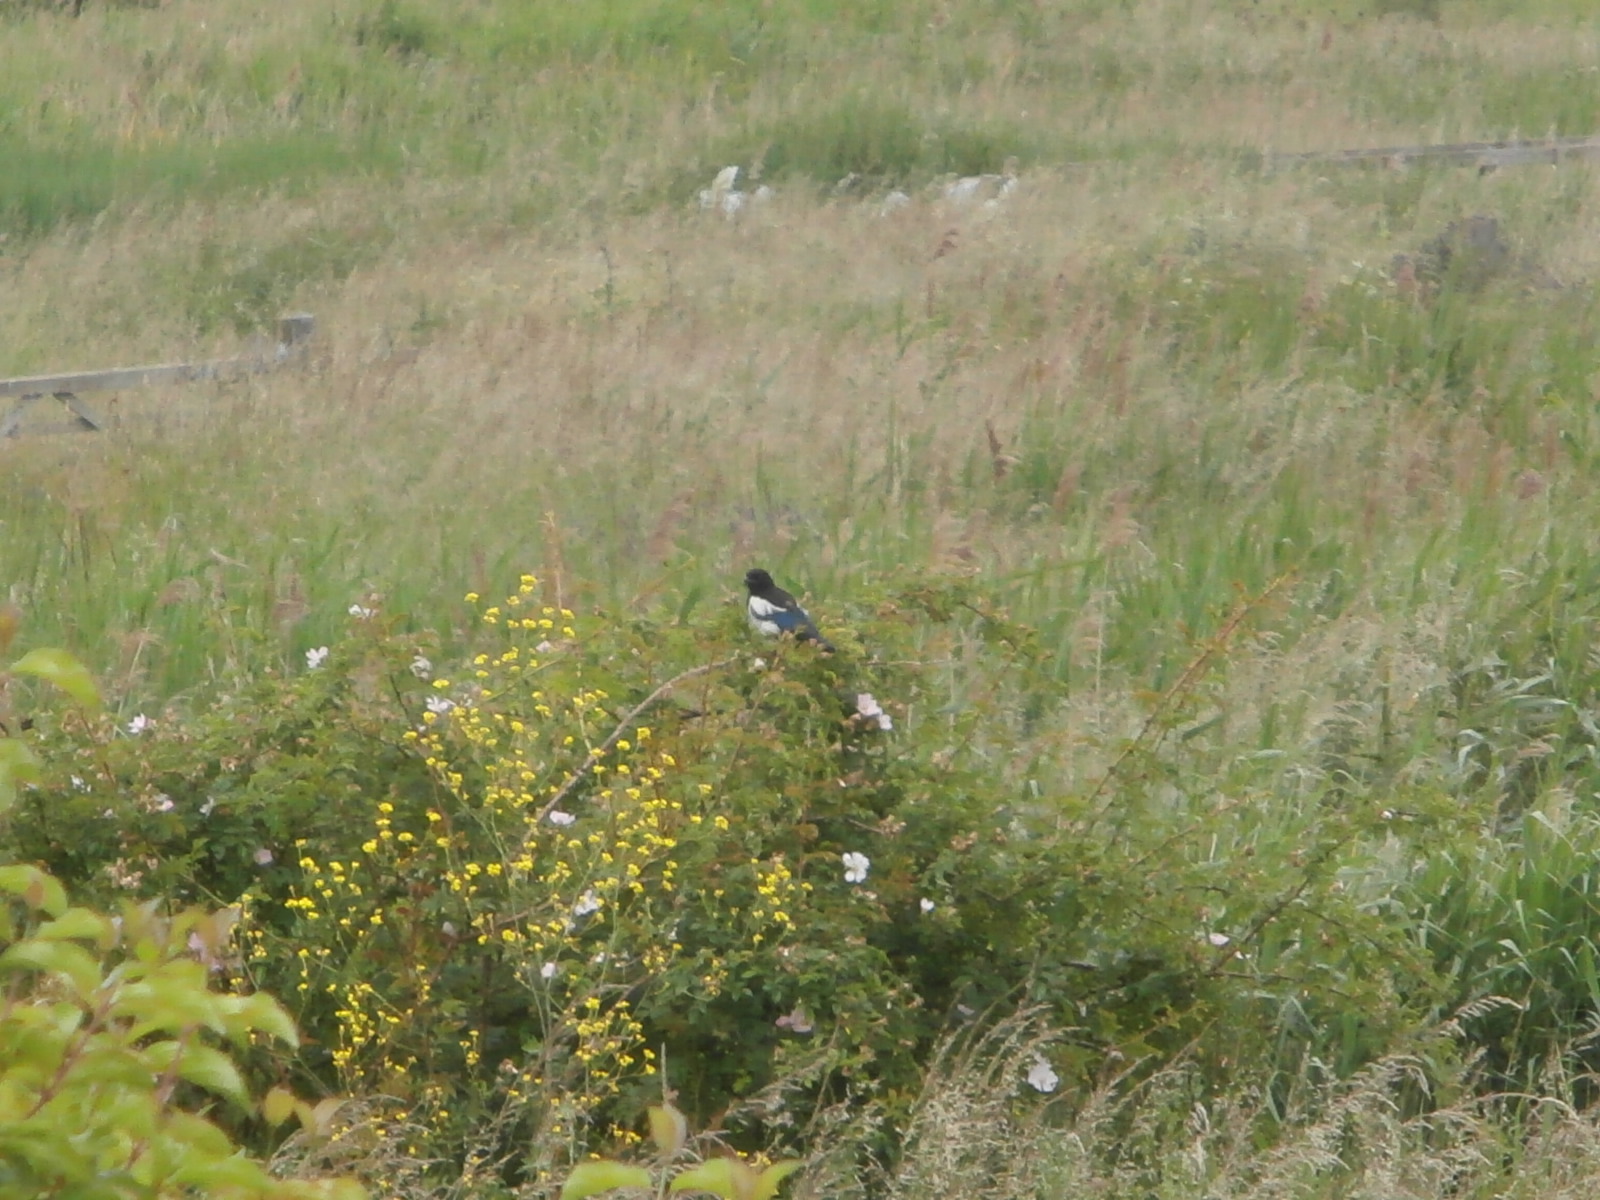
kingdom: Animalia
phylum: Chordata
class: Aves
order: Passeriformes
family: Corvidae
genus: Pica
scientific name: Pica pica
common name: Eurasian magpie
